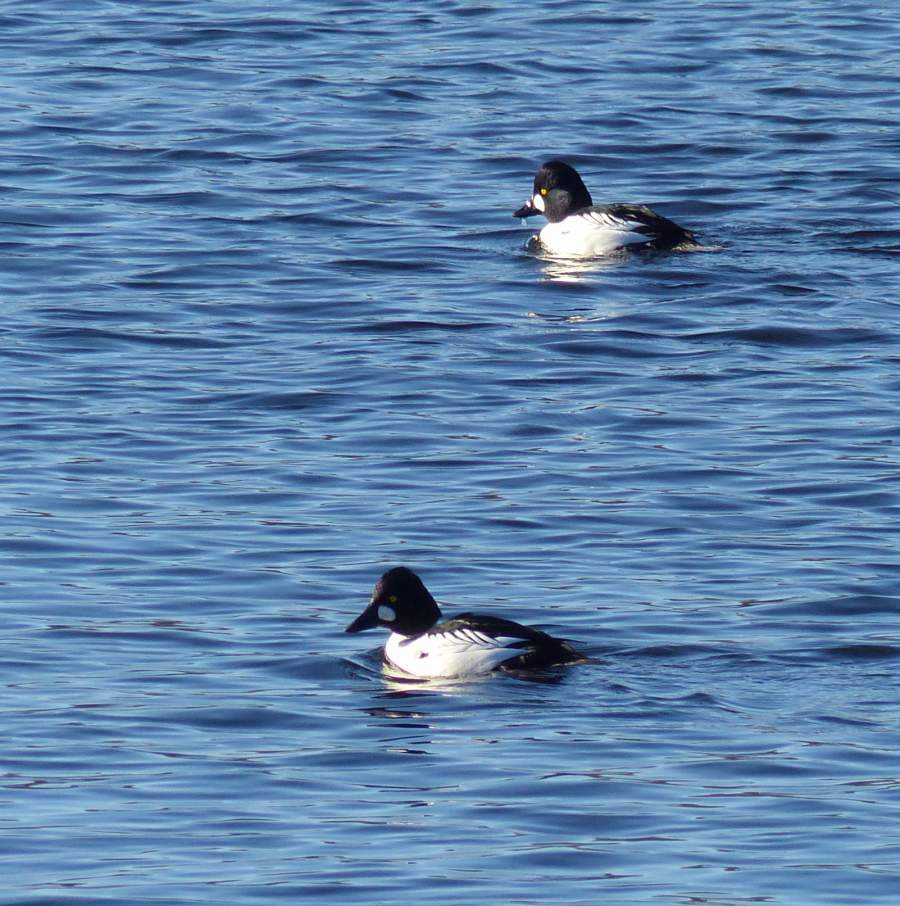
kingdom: Animalia
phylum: Chordata
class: Aves
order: Anseriformes
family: Anatidae
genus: Bucephala
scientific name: Bucephala clangula
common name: Common goldeneye
